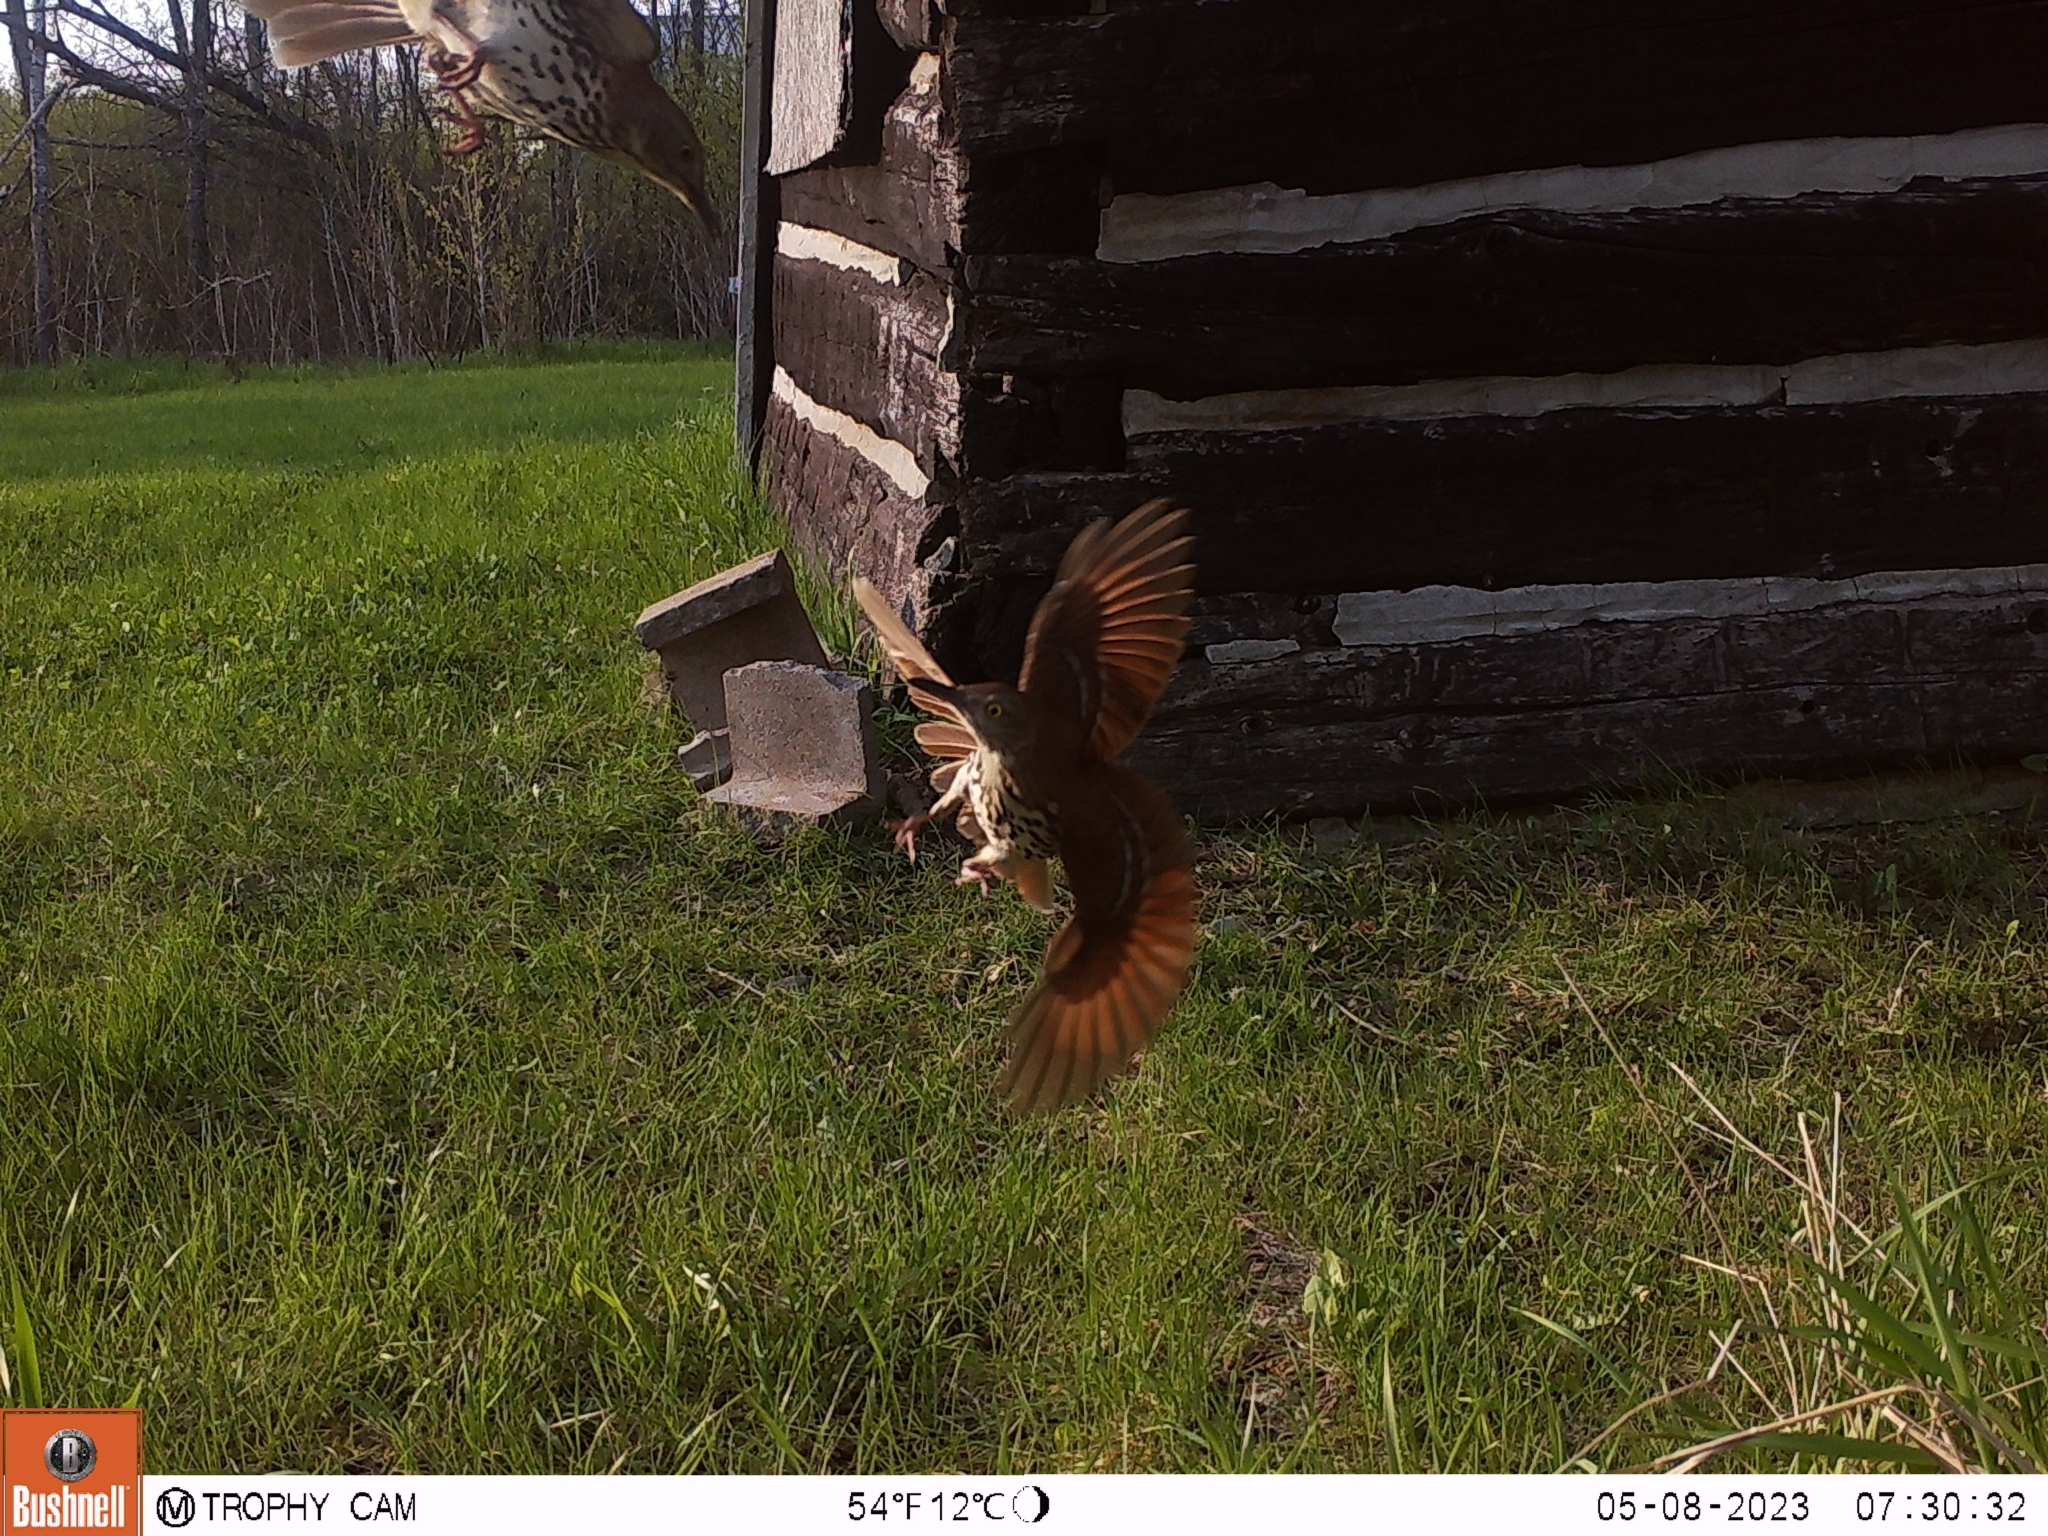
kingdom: Animalia
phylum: Chordata
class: Aves
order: Passeriformes
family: Mimidae
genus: Toxostoma
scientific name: Toxostoma rufum
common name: Brown thrasher
